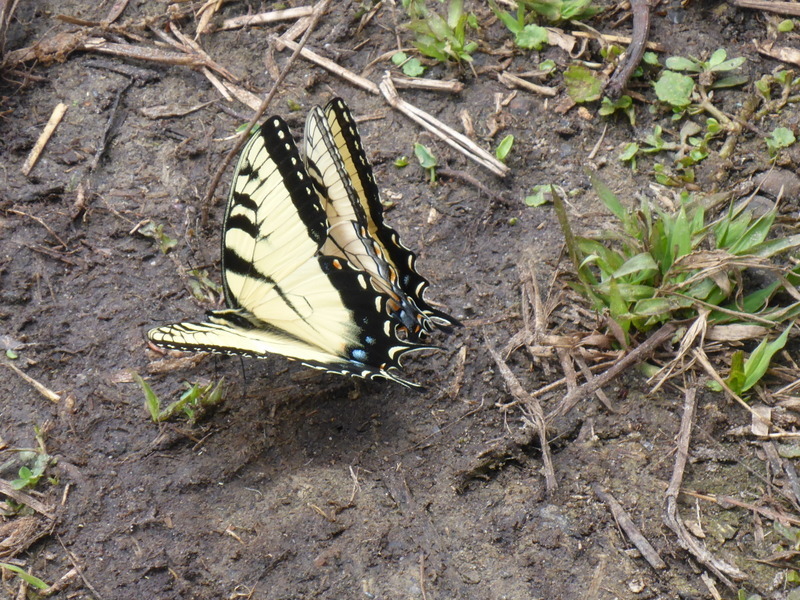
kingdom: Animalia
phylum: Arthropoda
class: Insecta
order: Lepidoptera
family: Papilionidae
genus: Papilio
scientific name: Papilio glaucus
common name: Tiger swallowtail
